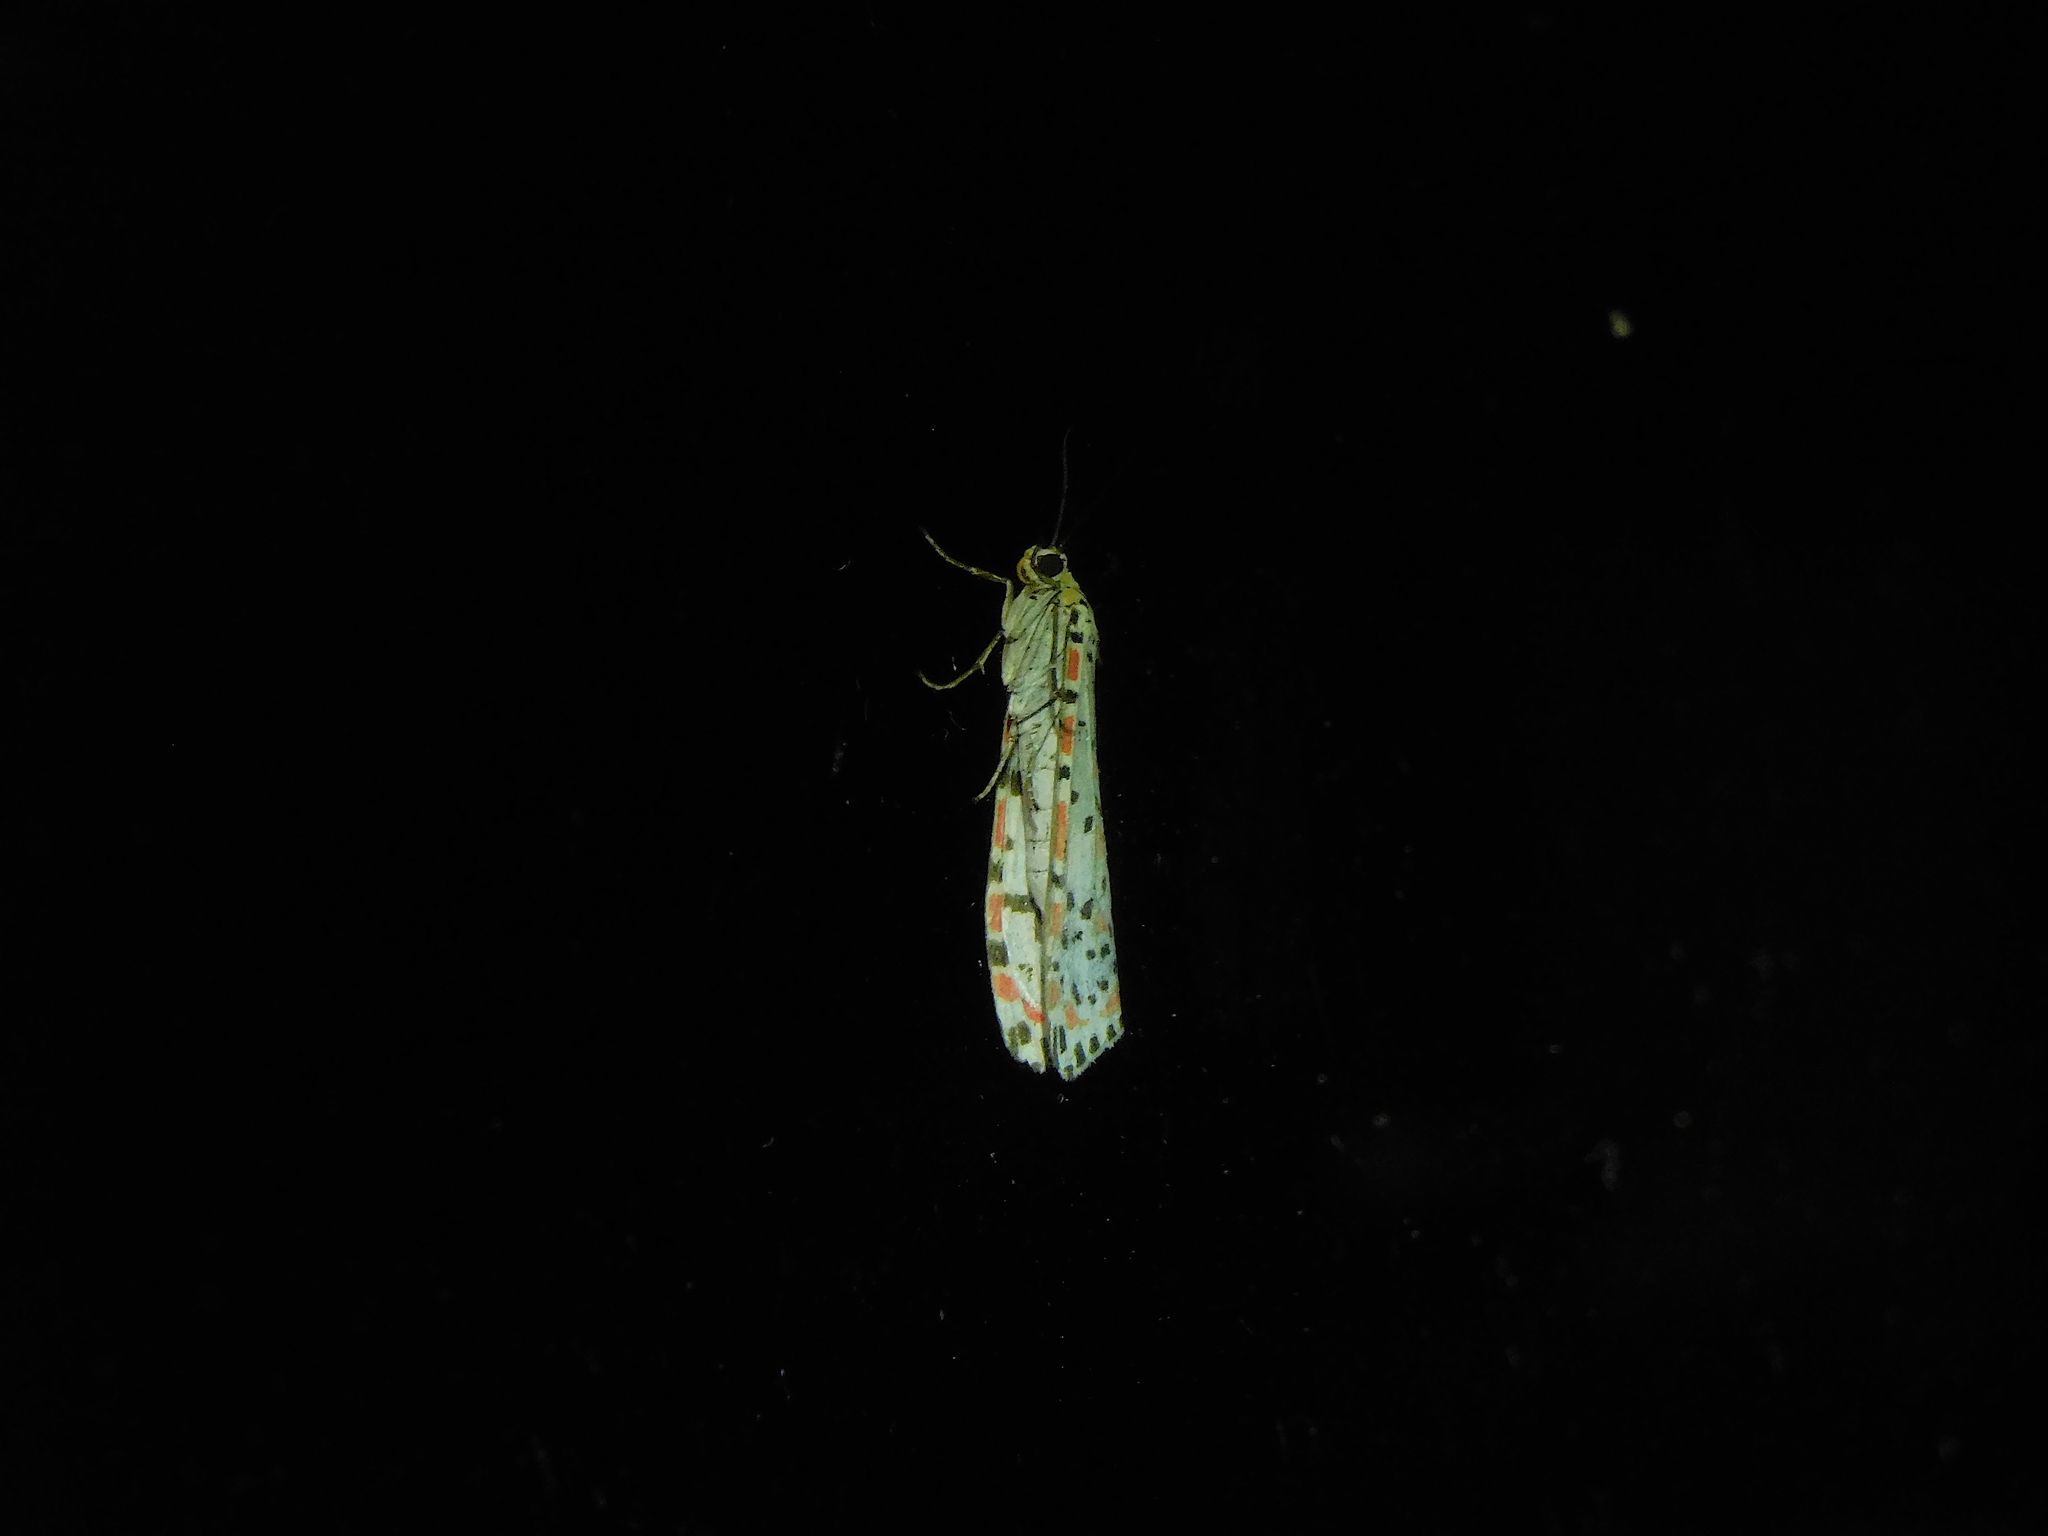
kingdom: Animalia
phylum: Arthropoda
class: Insecta
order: Lepidoptera
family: Erebidae
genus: Utetheisa
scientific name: Utetheisa pulchelloides
